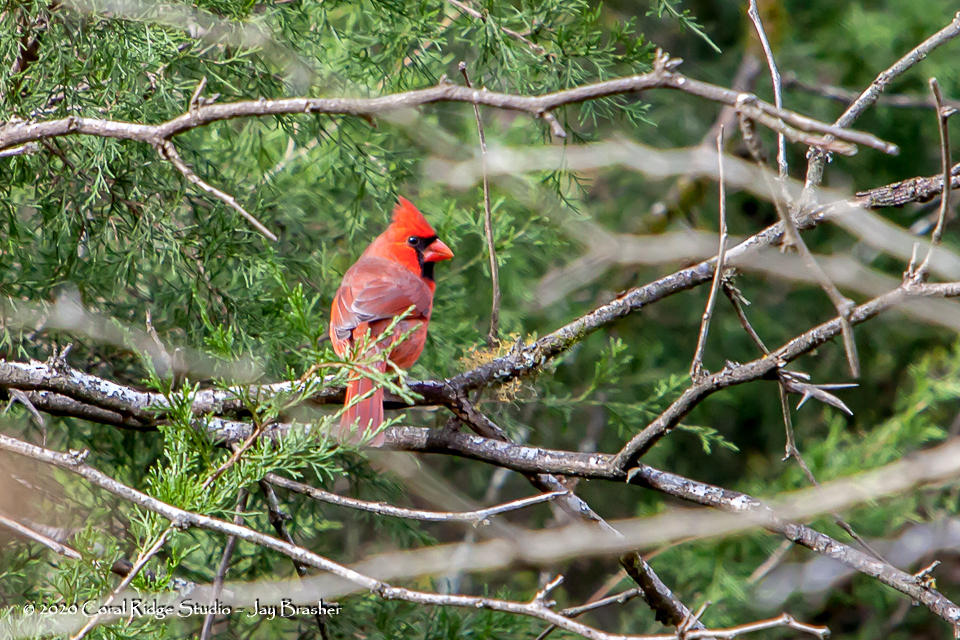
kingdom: Animalia
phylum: Chordata
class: Aves
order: Passeriformes
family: Cardinalidae
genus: Cardinalis
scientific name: Cardinalis cardinalis
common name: Northern cardinal
